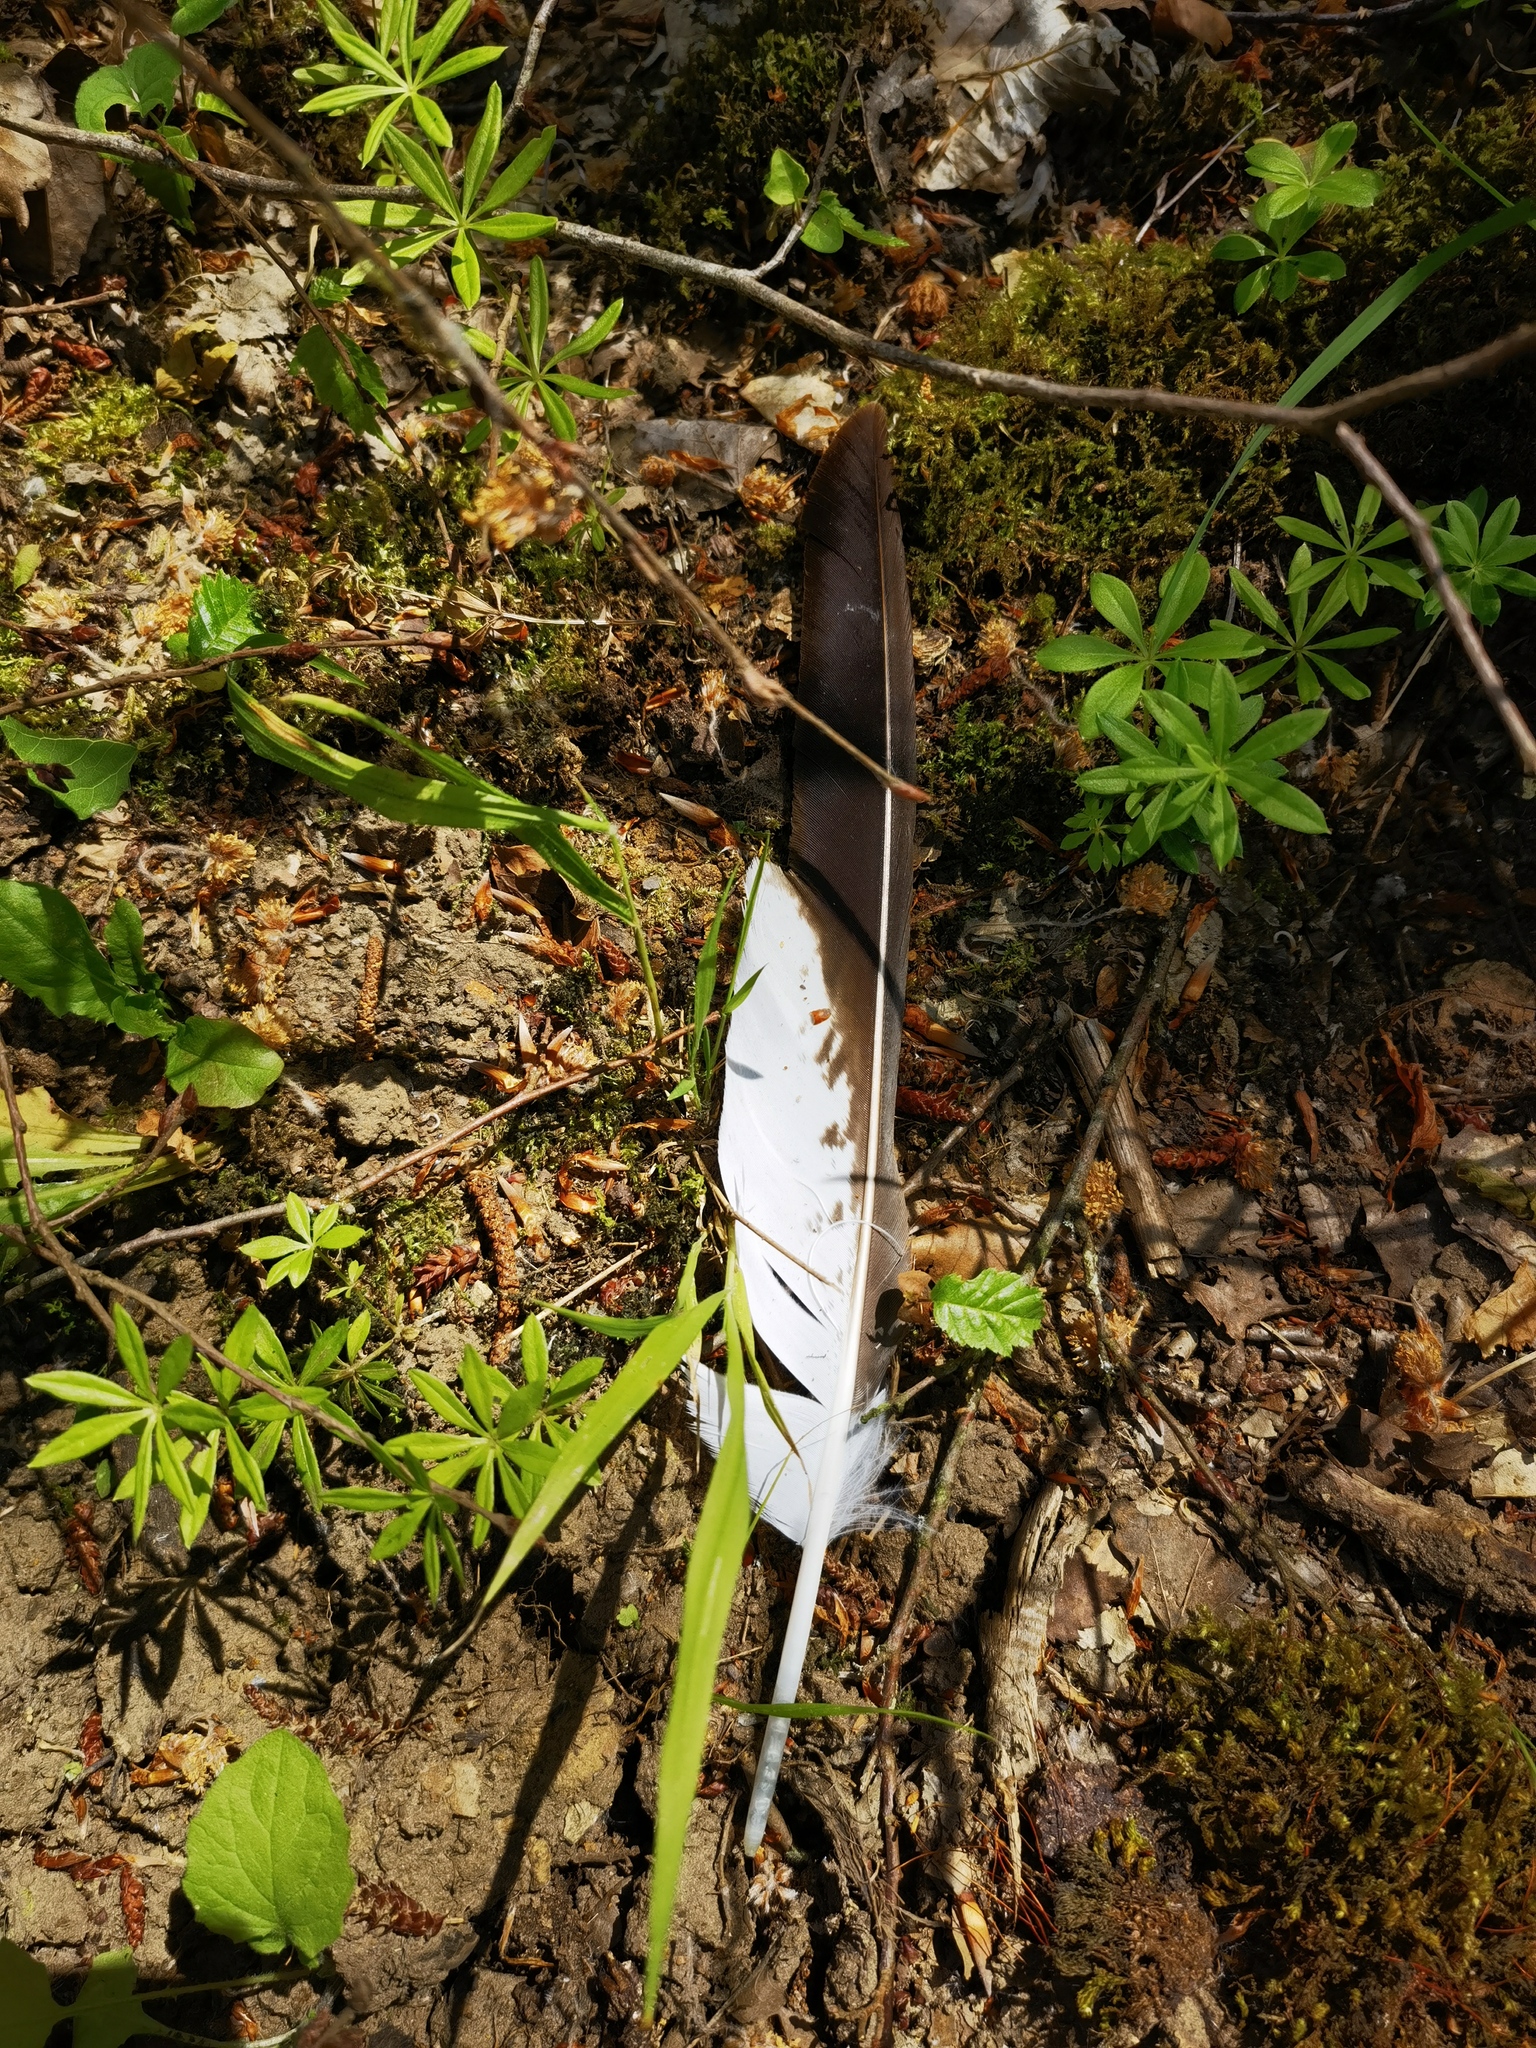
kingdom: Animalia
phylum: Chordata
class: Aves
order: Accipitriformes
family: Accipitridae
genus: Buteo
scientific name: Buteo buteo
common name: Common buzzard
